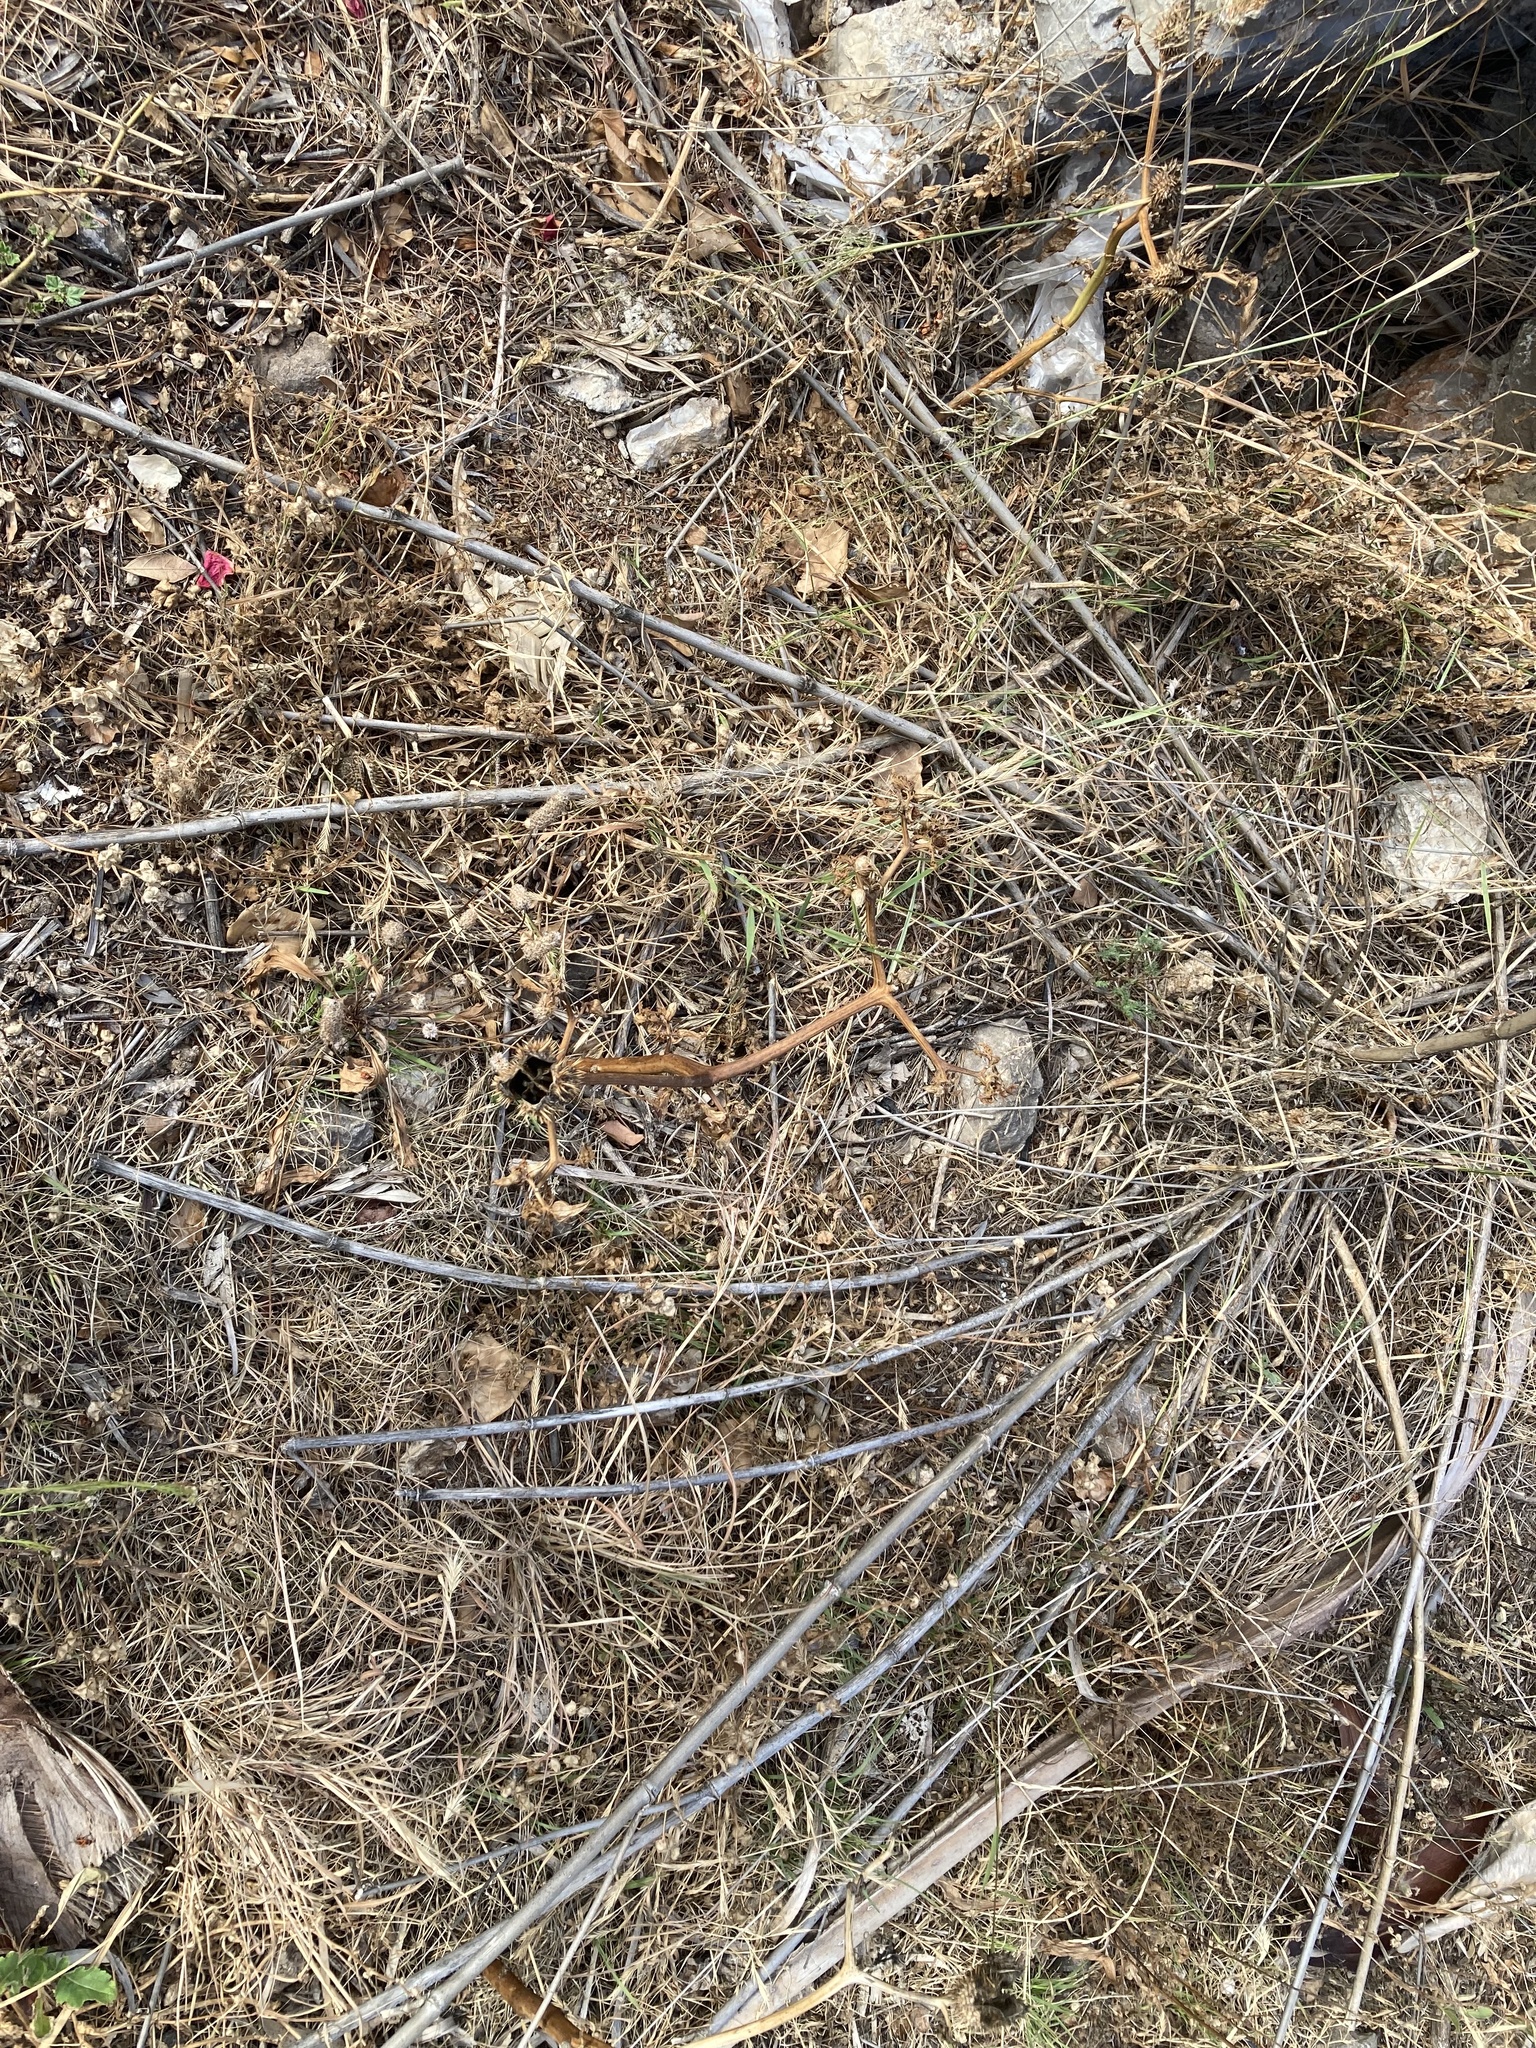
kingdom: Plantae
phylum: Tracheophyta
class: Magnoliopsida
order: Solanales
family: Solanaceae
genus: Datura
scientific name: Datura stramonium
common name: Thorn-apple
